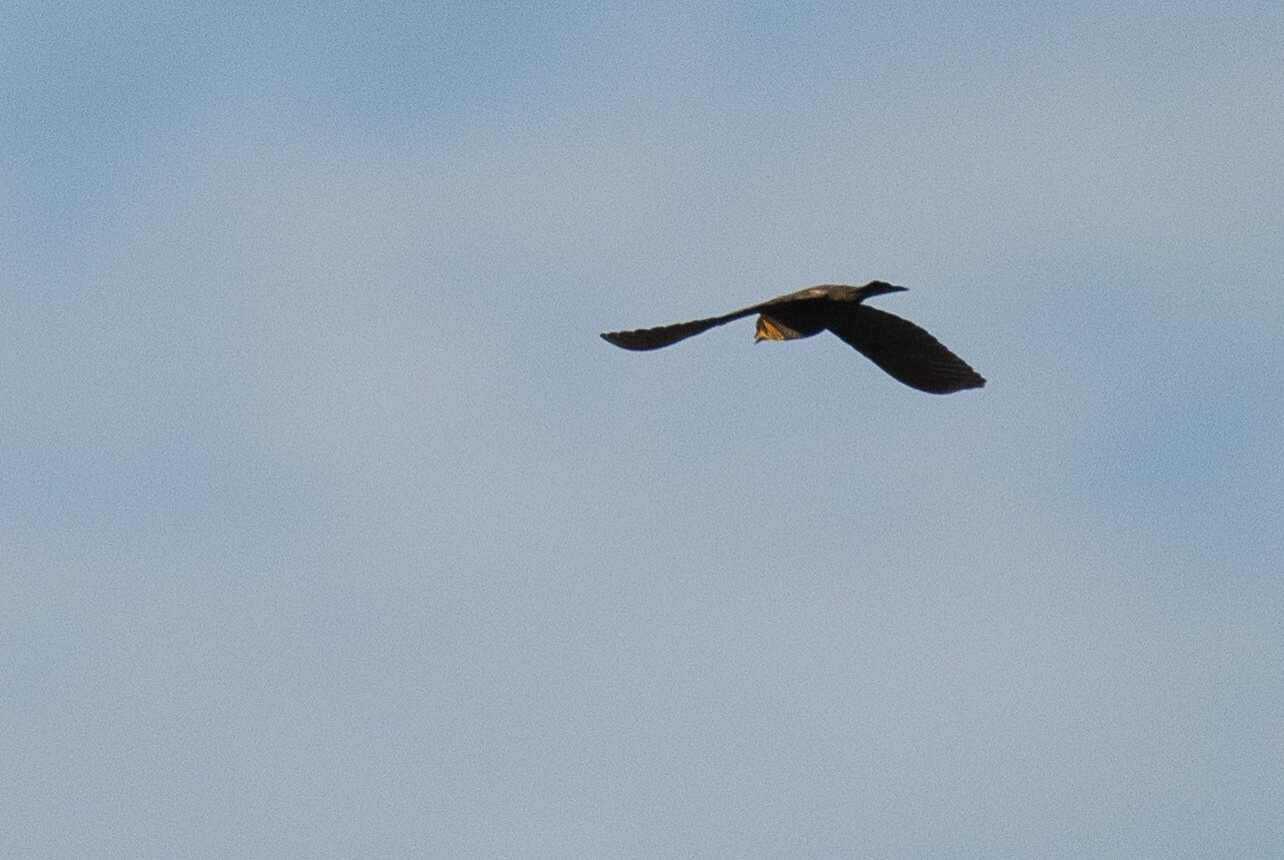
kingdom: Animalia
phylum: Chordata
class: Aves
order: Passeriformes
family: Icteridae
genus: Xanthocephalus
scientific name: Xanthocephalus xanthocephalus
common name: Yellow-headed blackbird
